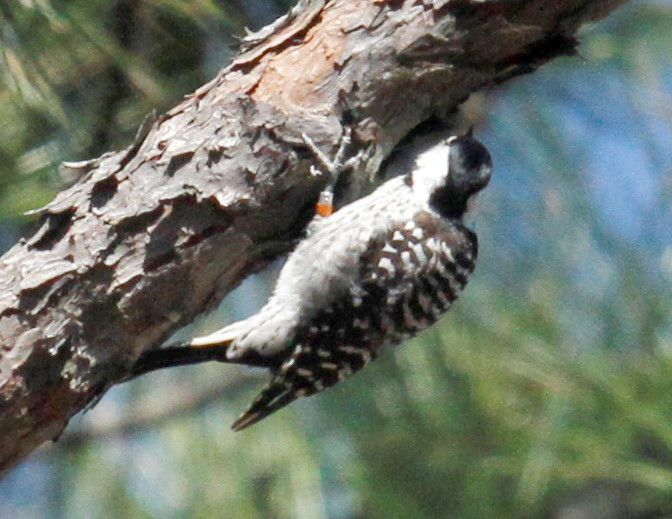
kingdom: Animalia
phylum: Chordata
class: Aves
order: Piciformes
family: Picidae
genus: Leuconotopicus
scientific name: Leuconotopicus borealis
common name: Red-cockaded woodpecker
